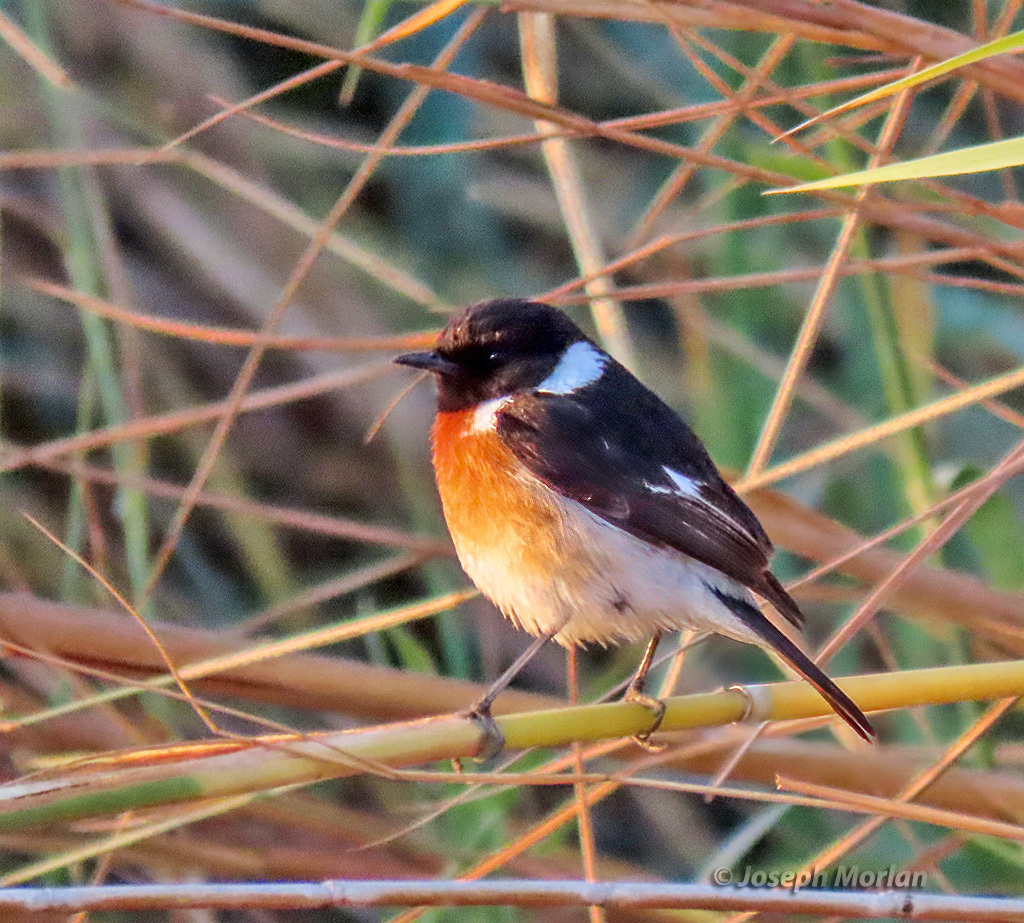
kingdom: Animalia
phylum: Chordata
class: Aves
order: Passeriformes
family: Muscicapidae
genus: Saxicola
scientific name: Saxicola torquatus
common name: African stonechat
